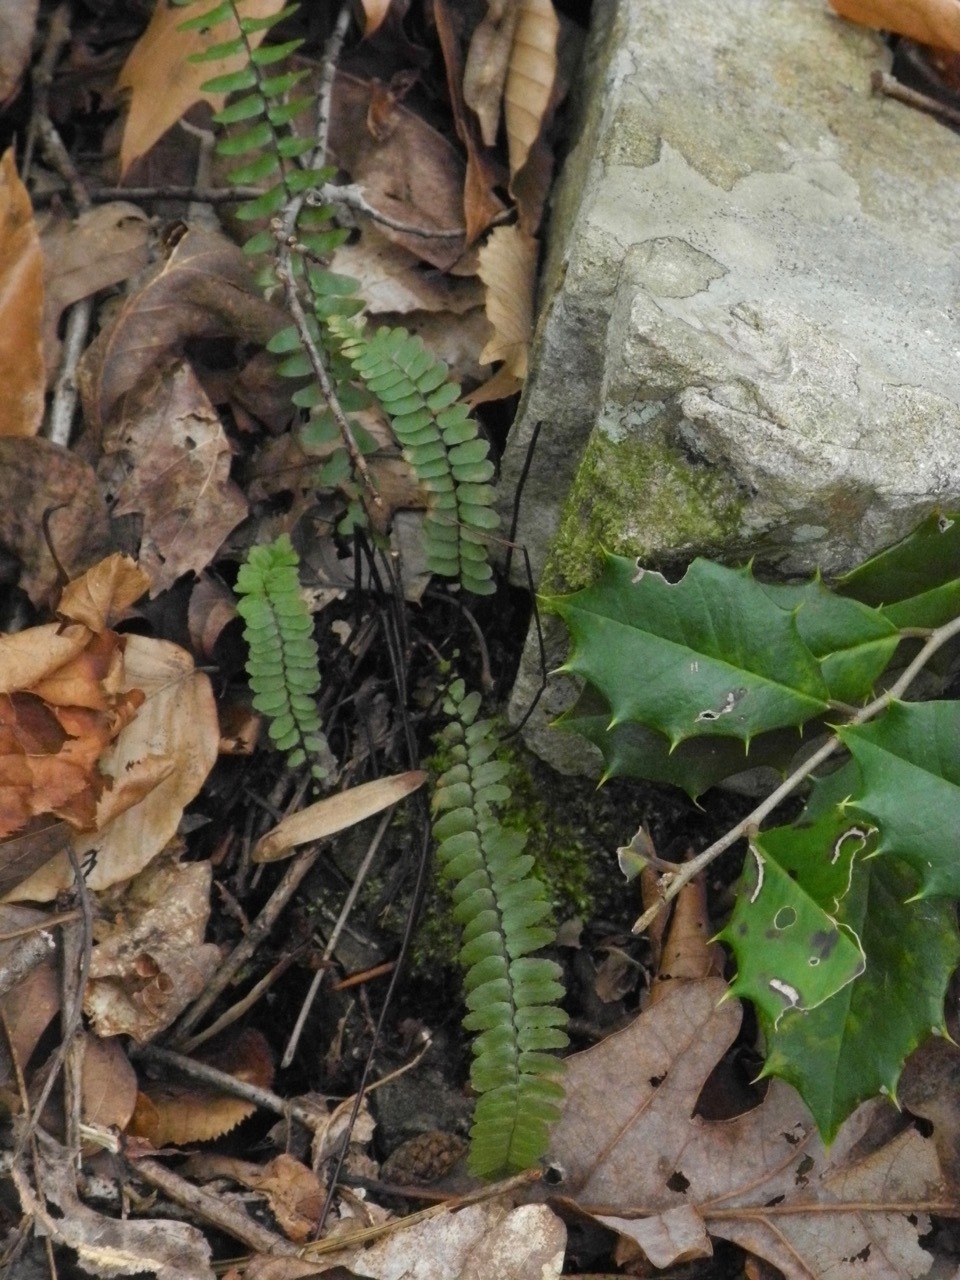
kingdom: Plantae
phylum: Tracheophyta
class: Magnoliopsida
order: Aquifoliales
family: Aquifoliaceae
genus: Ilex
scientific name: Ilex opaca
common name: American holly
